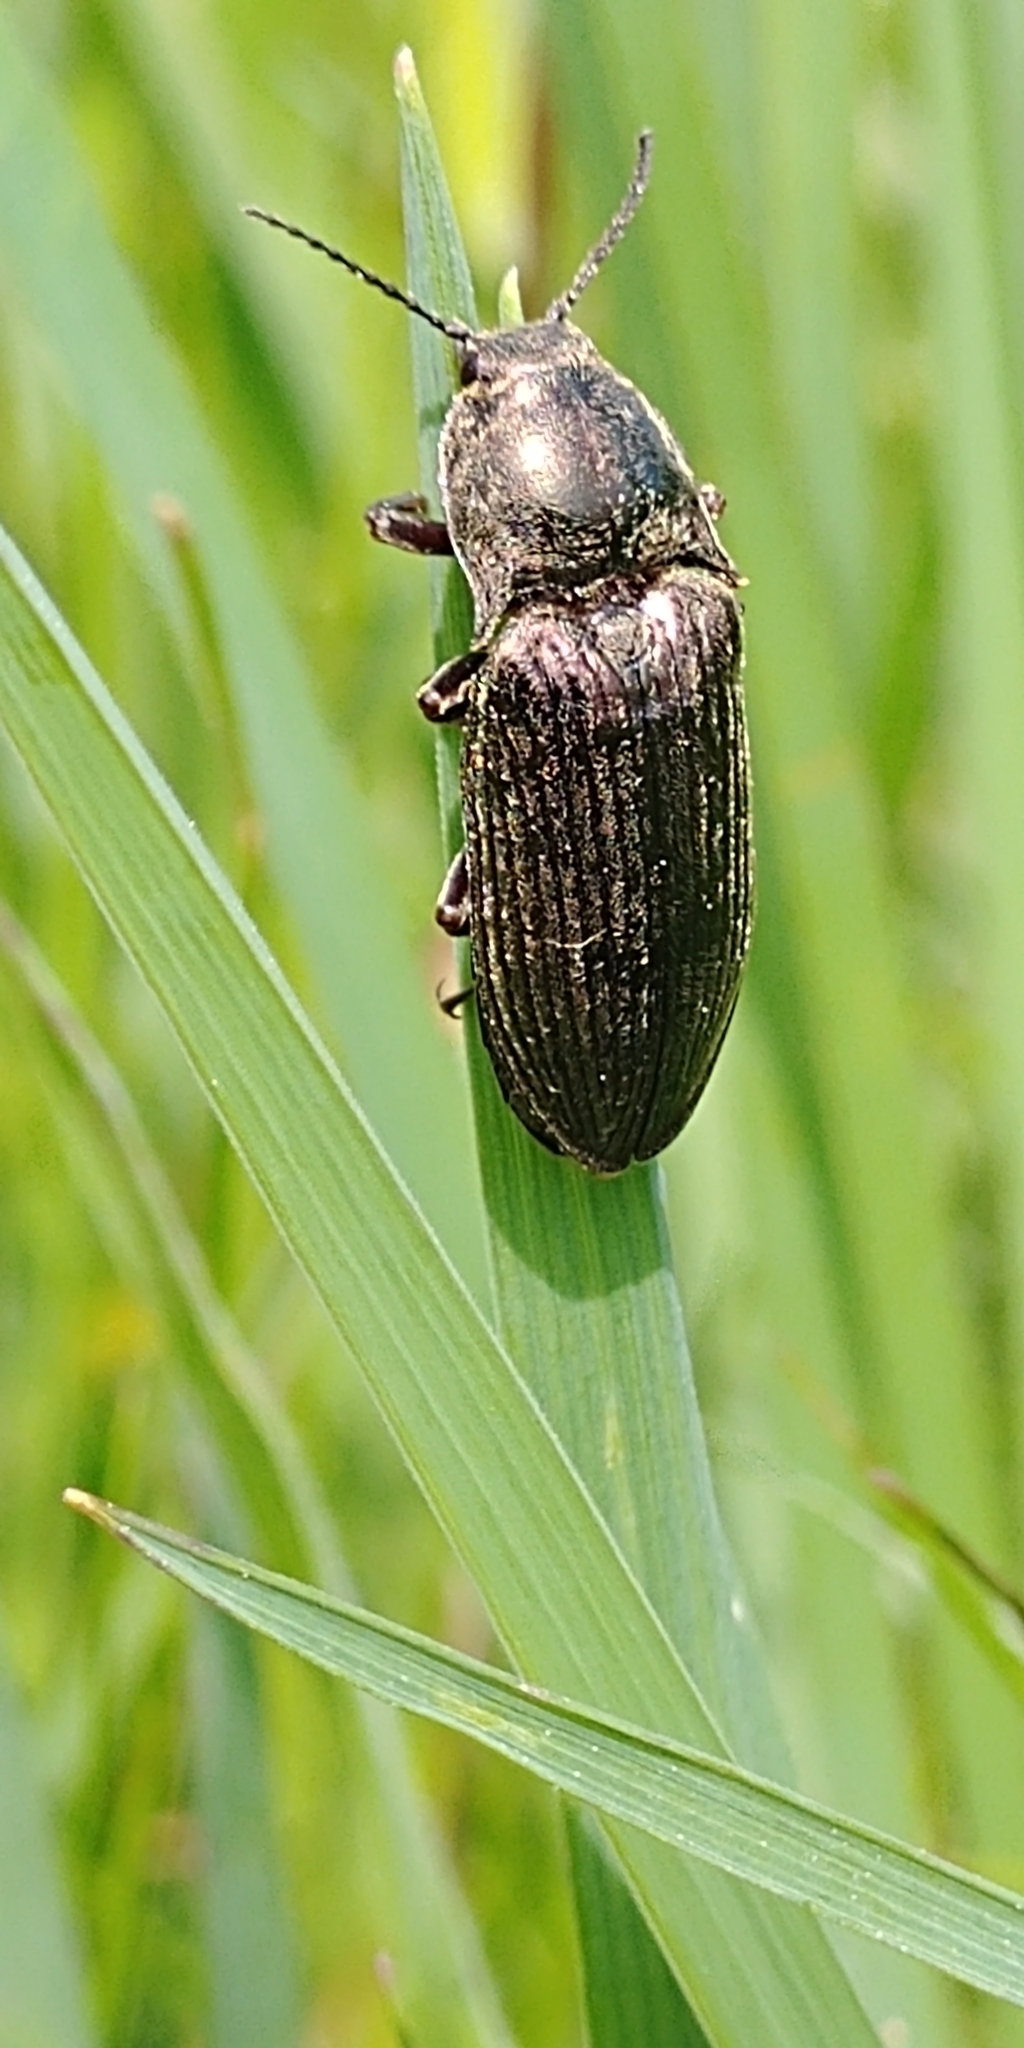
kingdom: Animalia
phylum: Arthropoda
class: Insecta
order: Coleoptera
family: Elateridae
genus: Selatosomus
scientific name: Selatosomus latus
